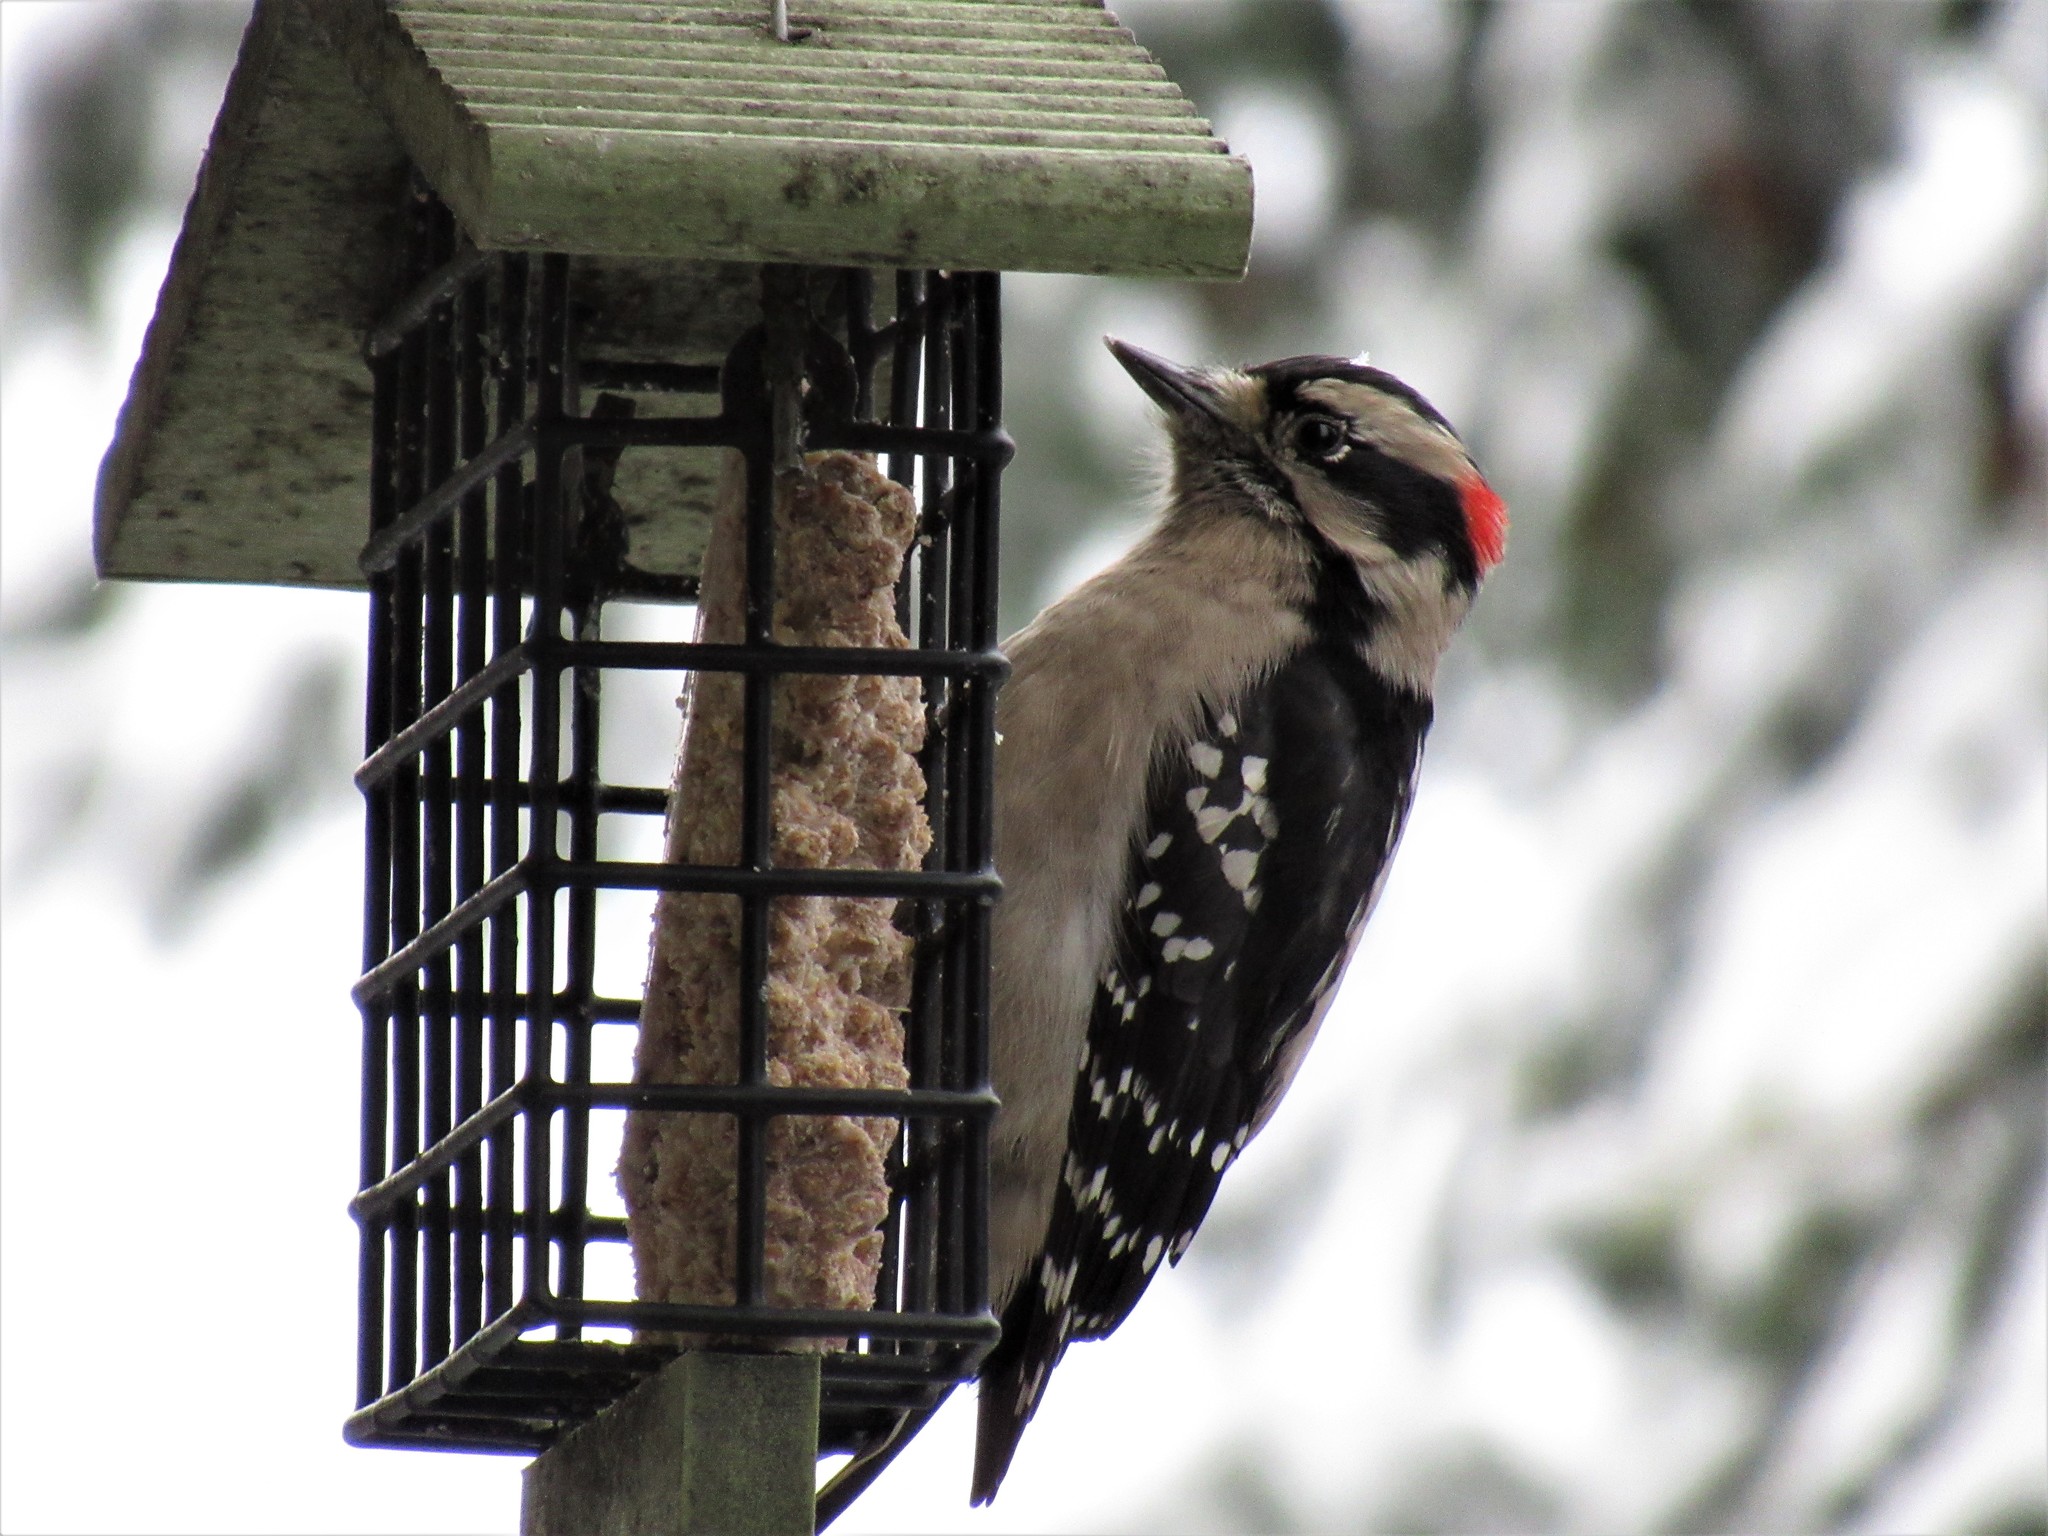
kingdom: Animalia
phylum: Chordata
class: Aves
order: Piciformes
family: Picidae
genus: Dryobates
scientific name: Dryobates pubescens
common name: Downy woodpecker
